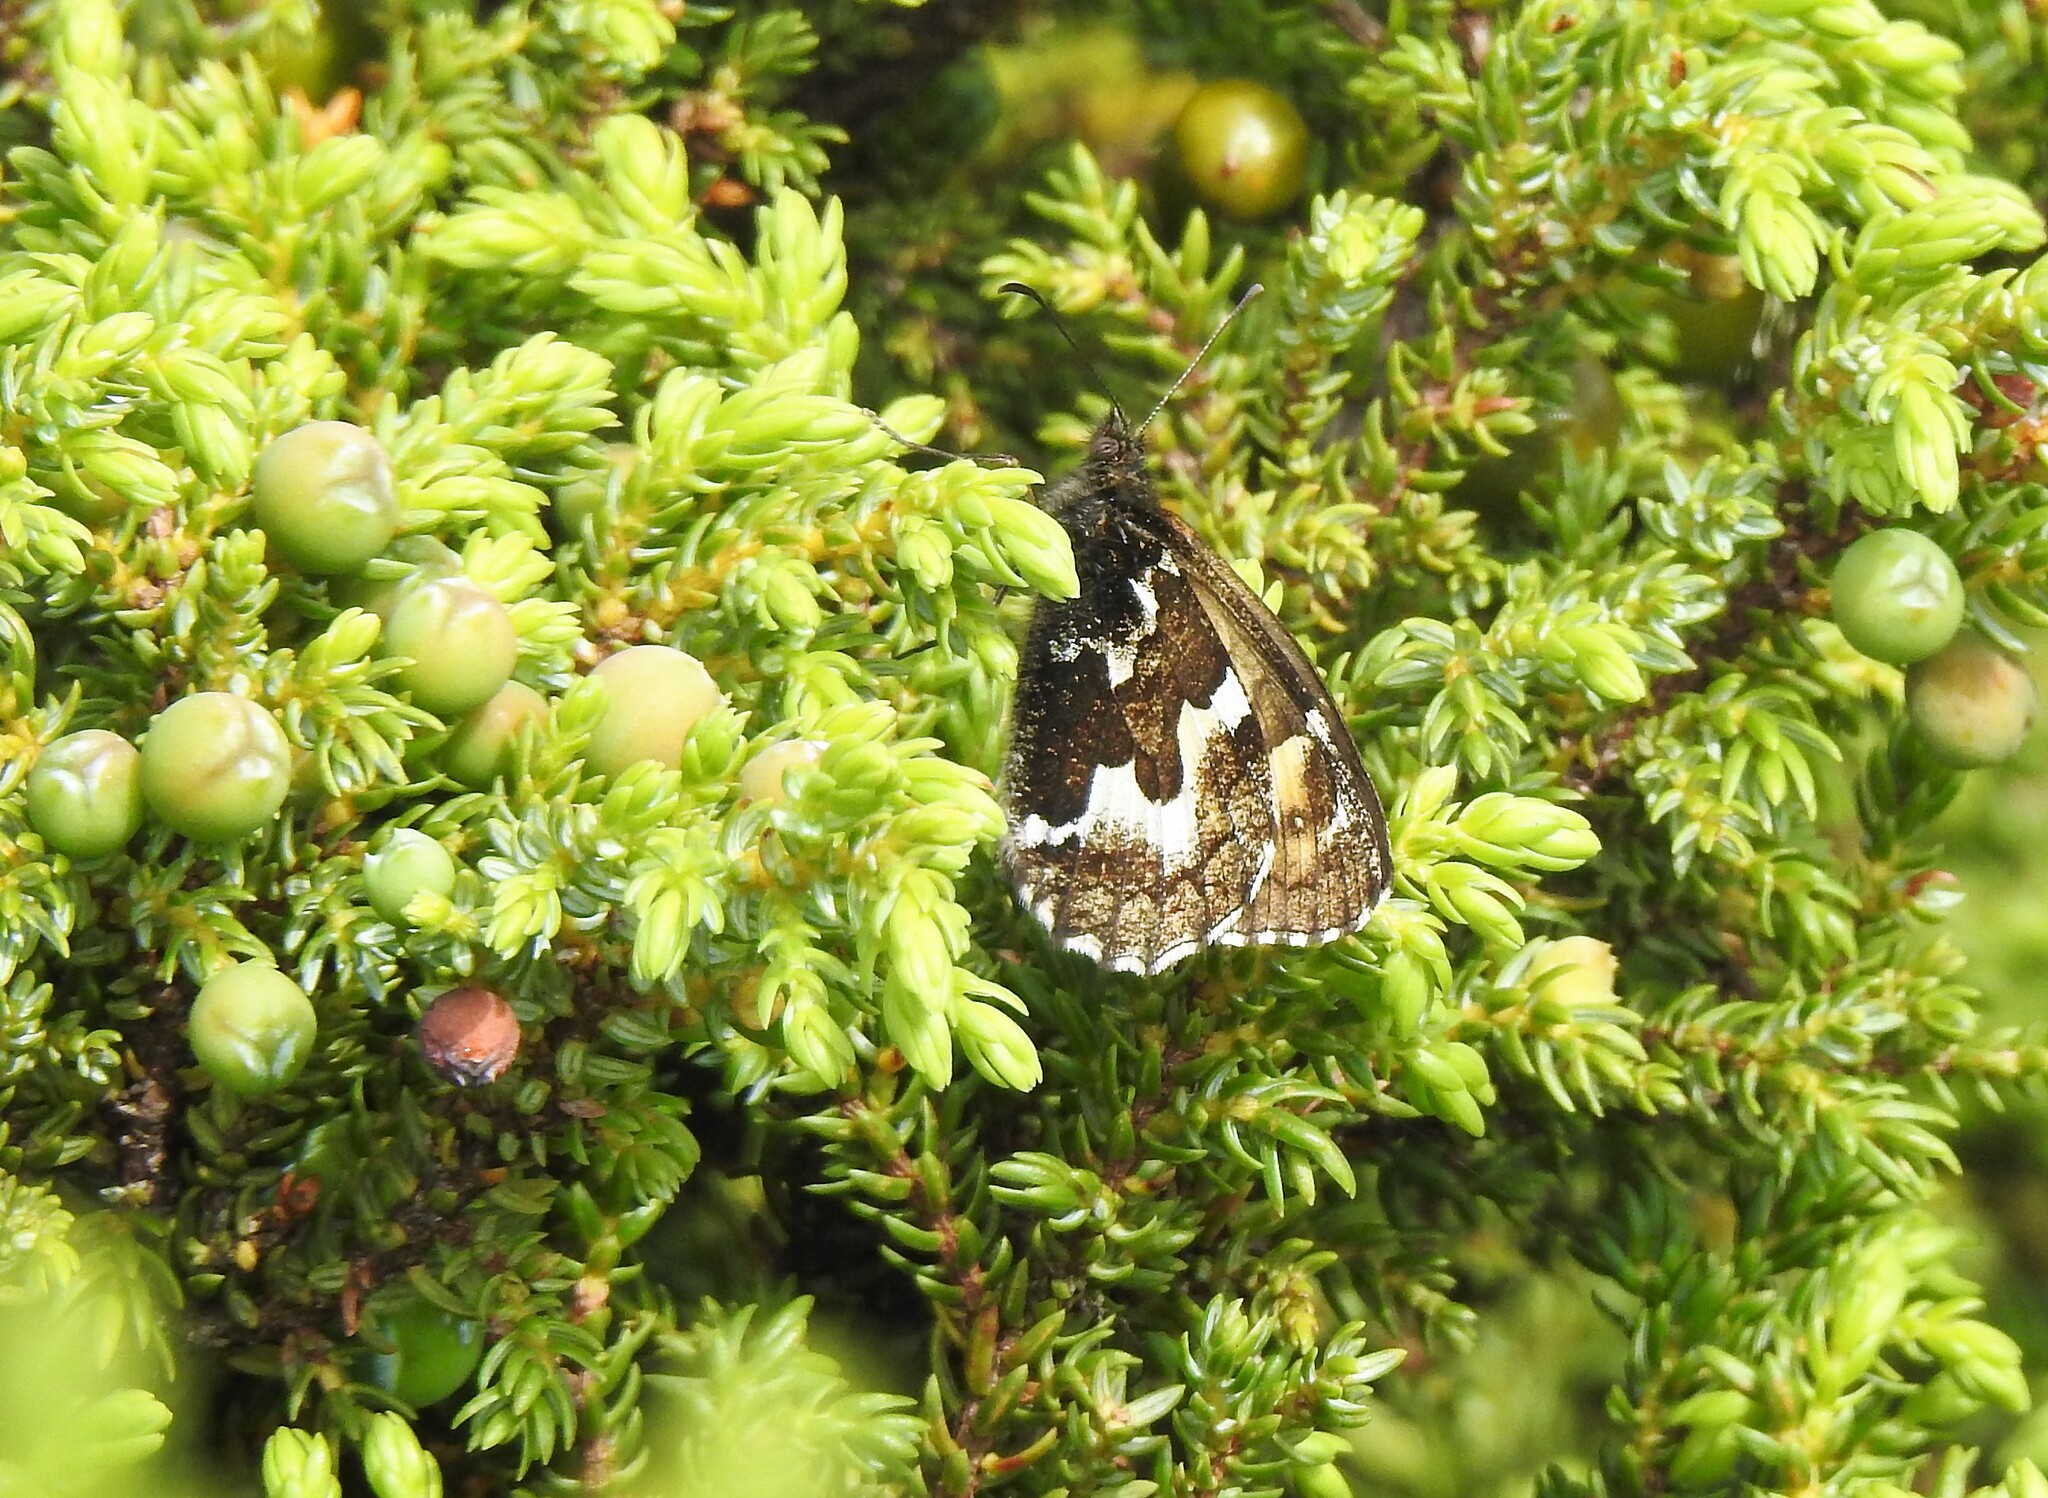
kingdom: Animalia
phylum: Arthropoda
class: Insecta
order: Lepidoptera
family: Nymphalidae
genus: Hipparchia
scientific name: Hipparchia azorinus
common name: Azores grayling
